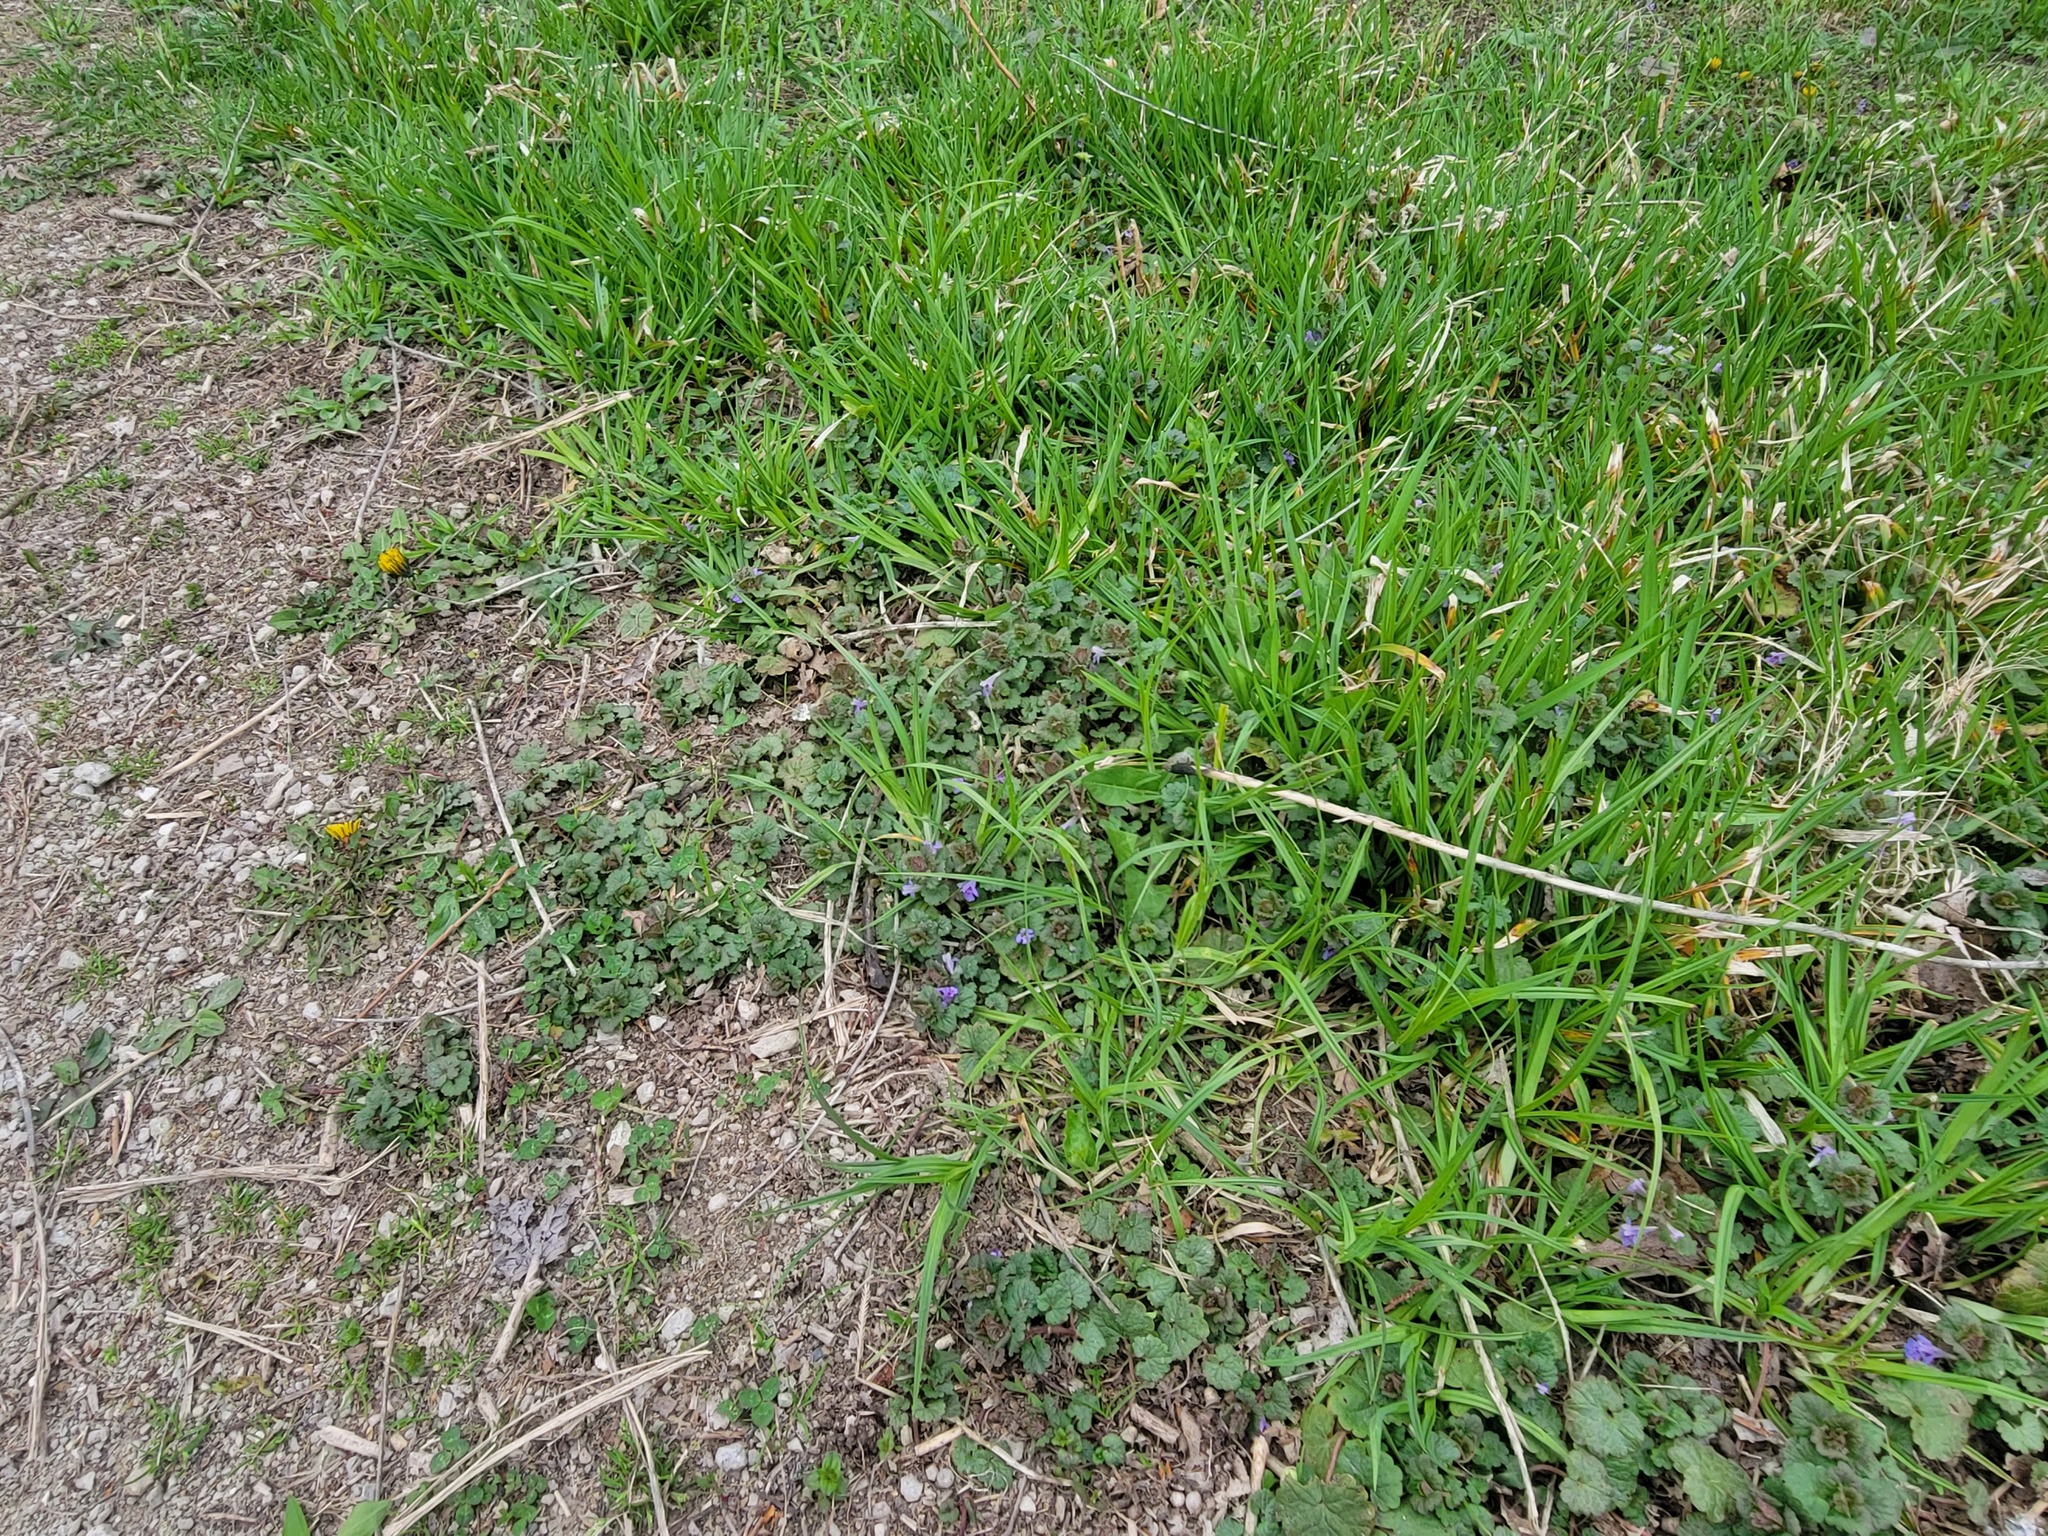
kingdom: Plantae
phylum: Tracheophyta
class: Magnoliopsida
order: Lamiales
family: Lamiaceae
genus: Glechoma
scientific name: Glechoma hederacea
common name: Ground ivy
